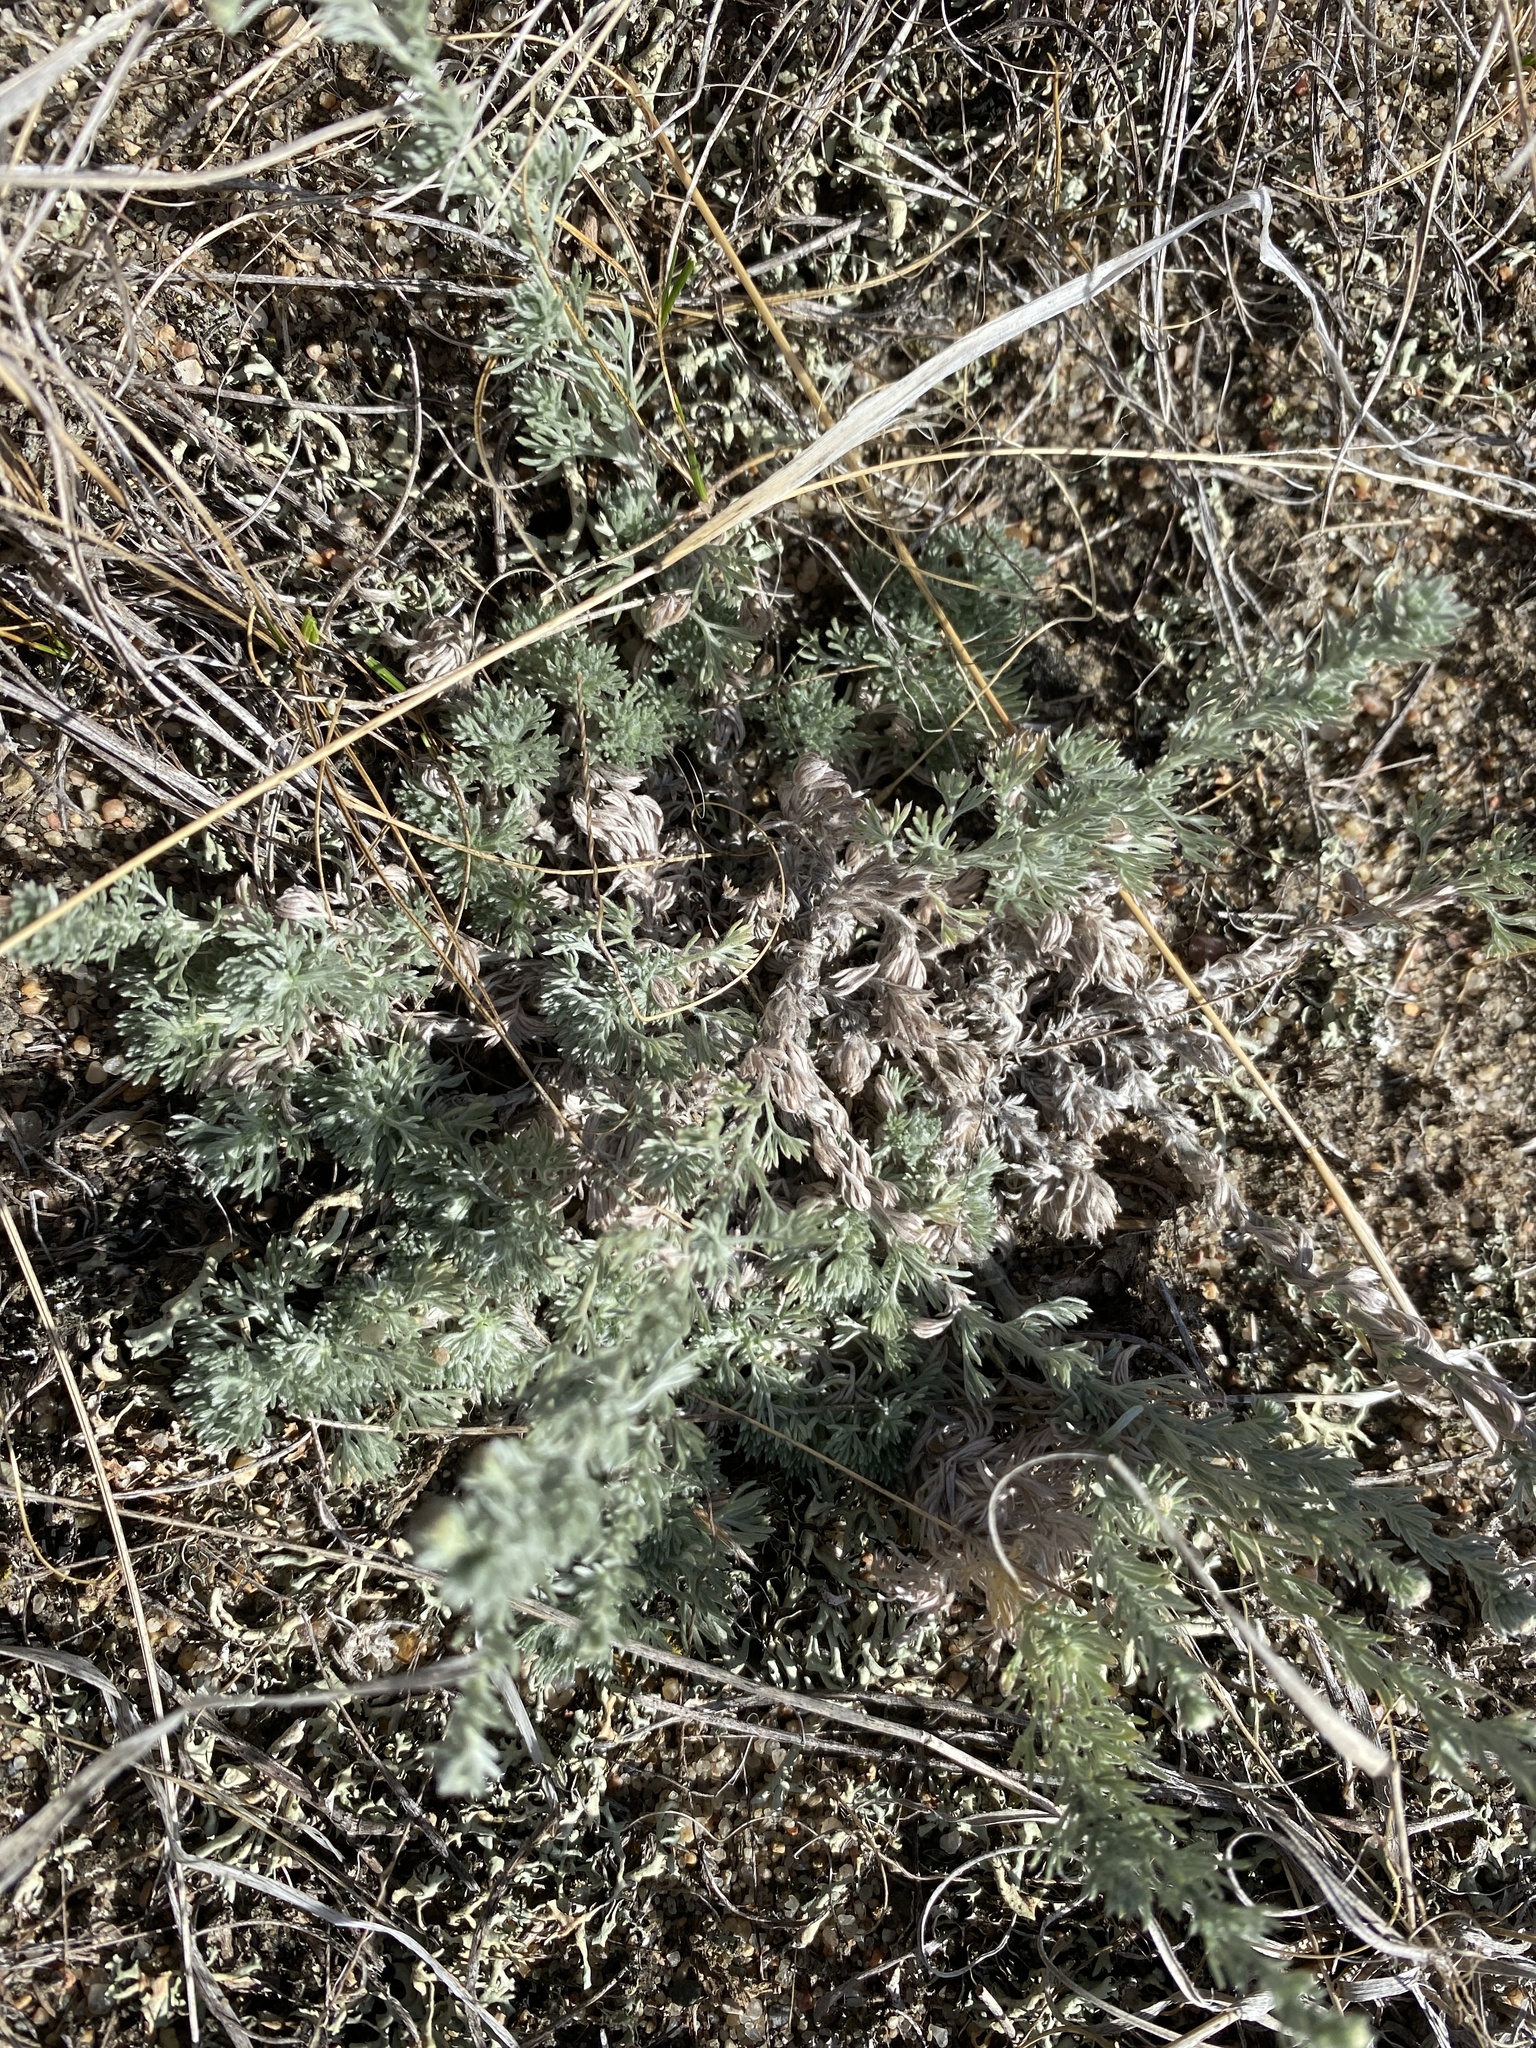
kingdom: Plantae
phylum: Tracheophyta
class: Magnoliopsida
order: Asterales
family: Asteraceae
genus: Artemisia
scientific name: Artemisia frigida
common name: Prairie sagewort
